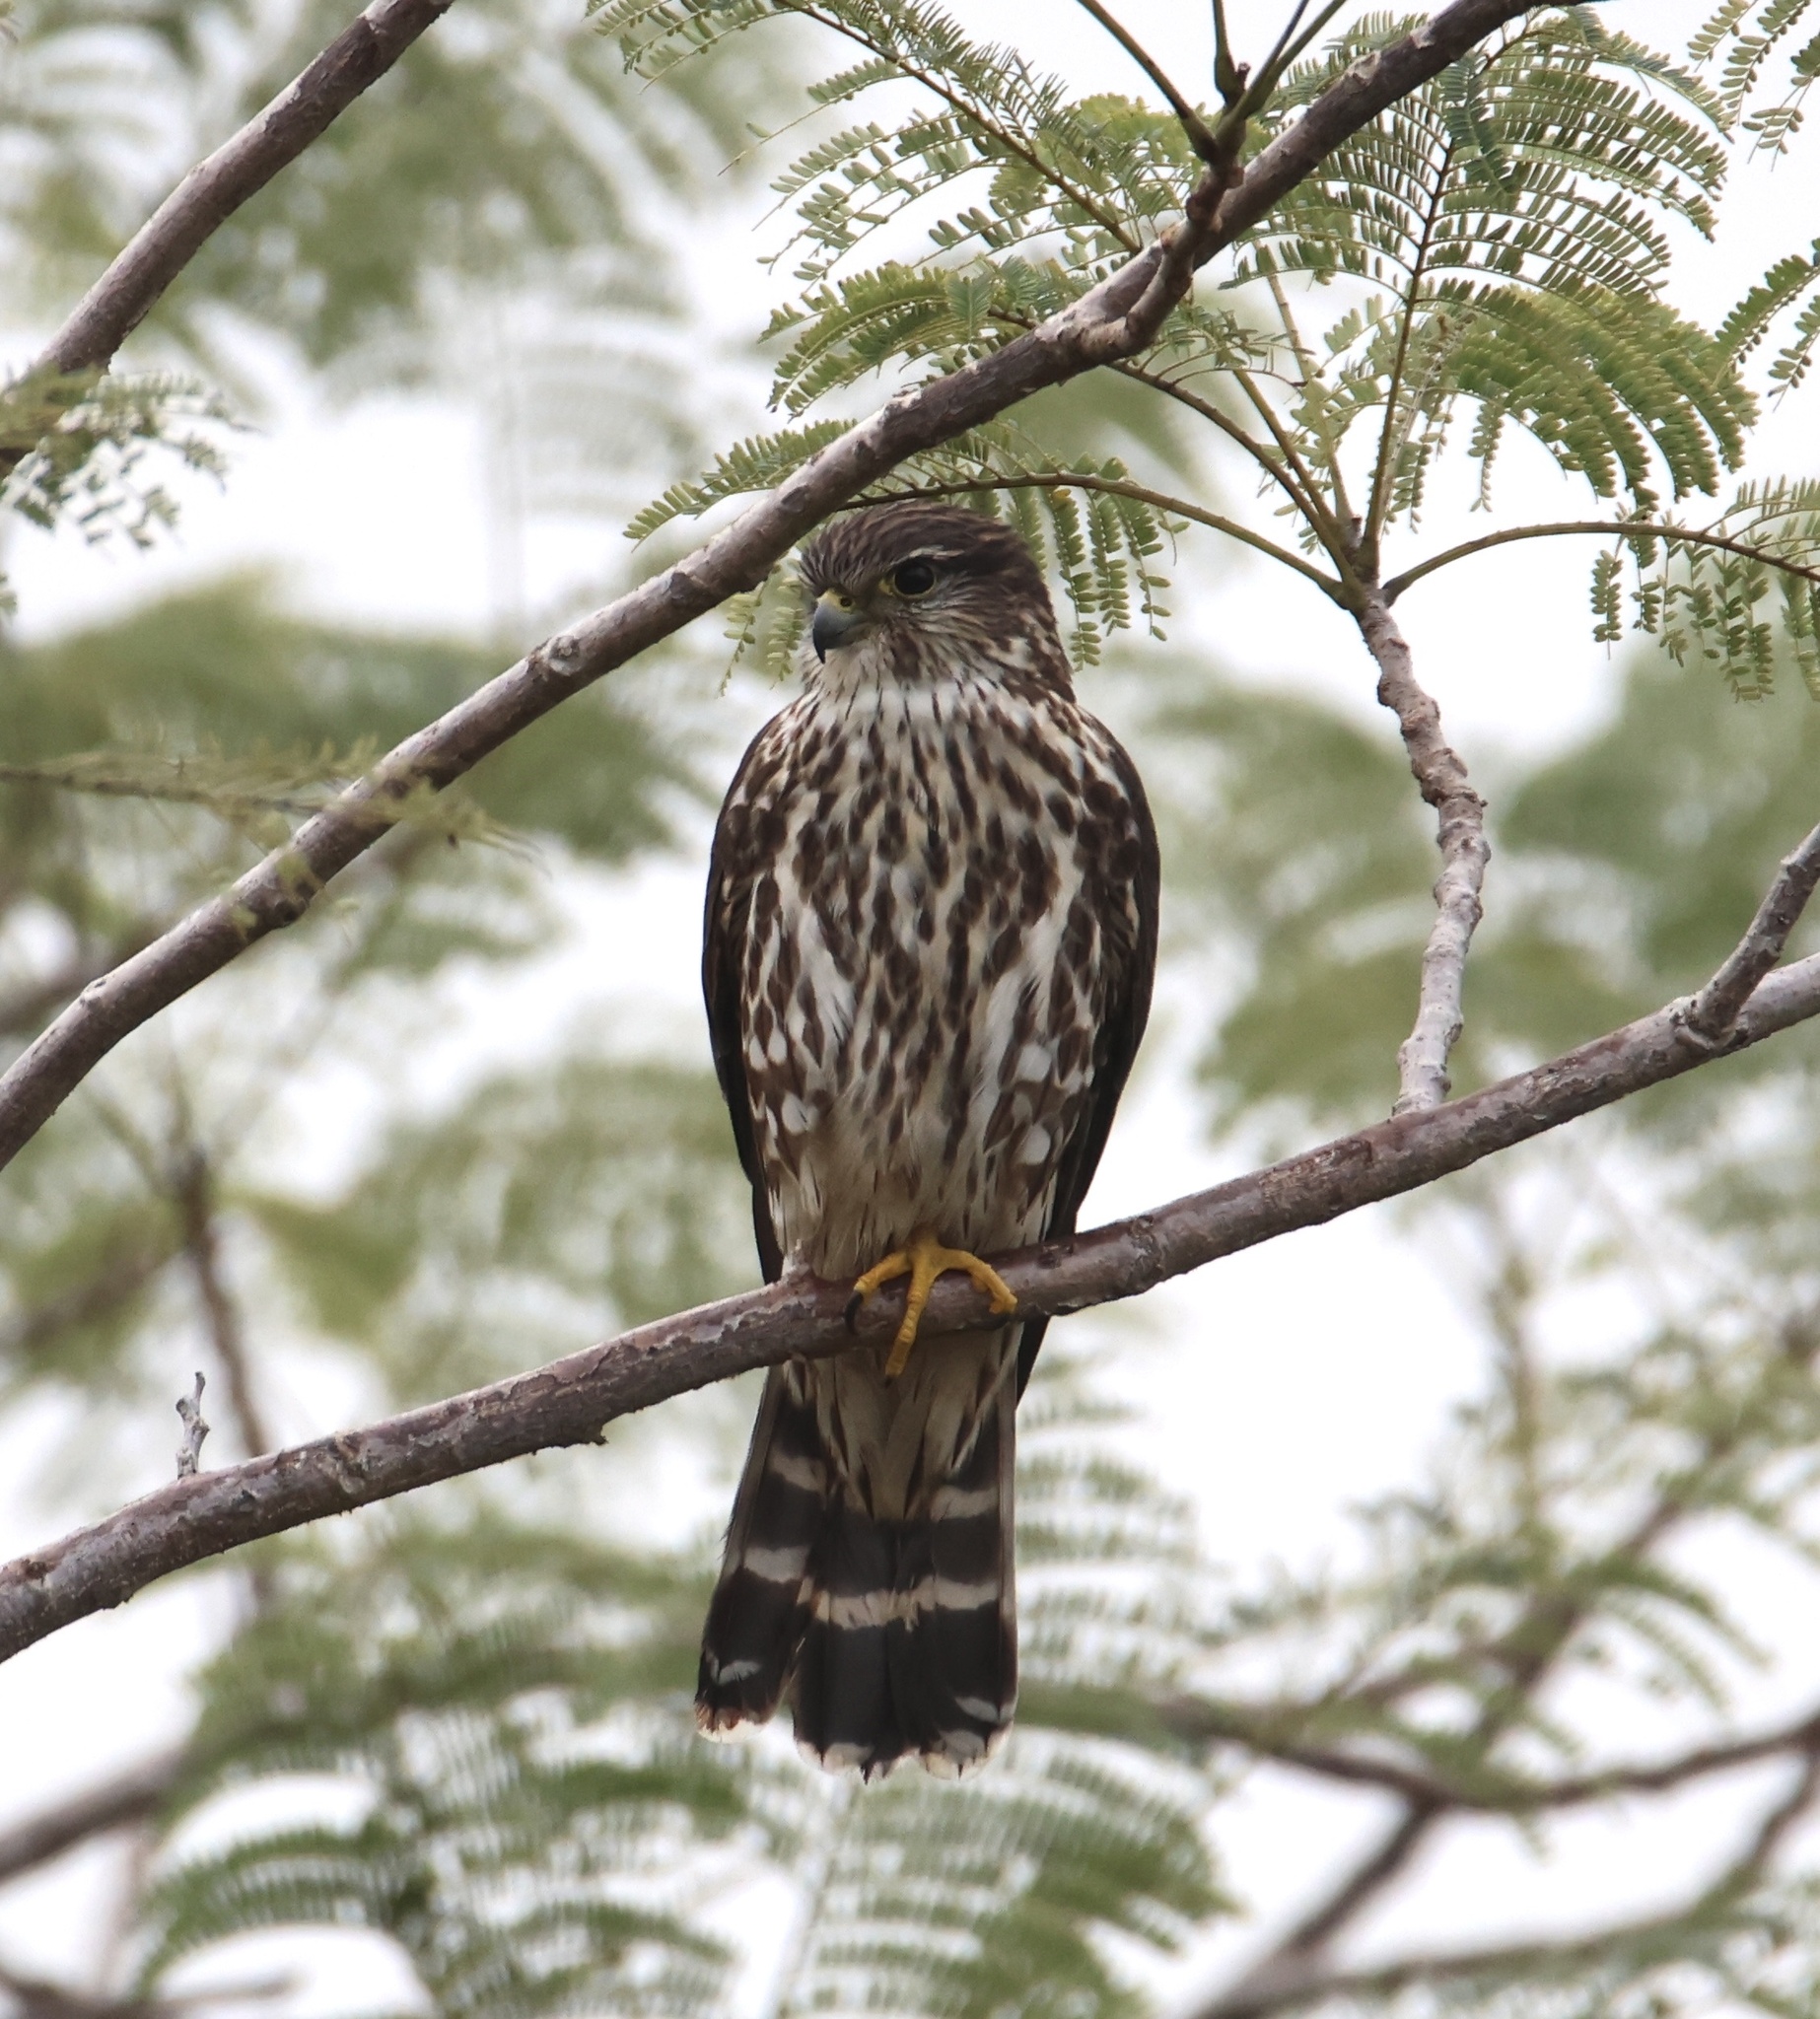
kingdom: Animalia
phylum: Chordata
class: Aves
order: Falconiformes
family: Falconidae
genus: Falco
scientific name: Falco columbarius
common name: Merlin
